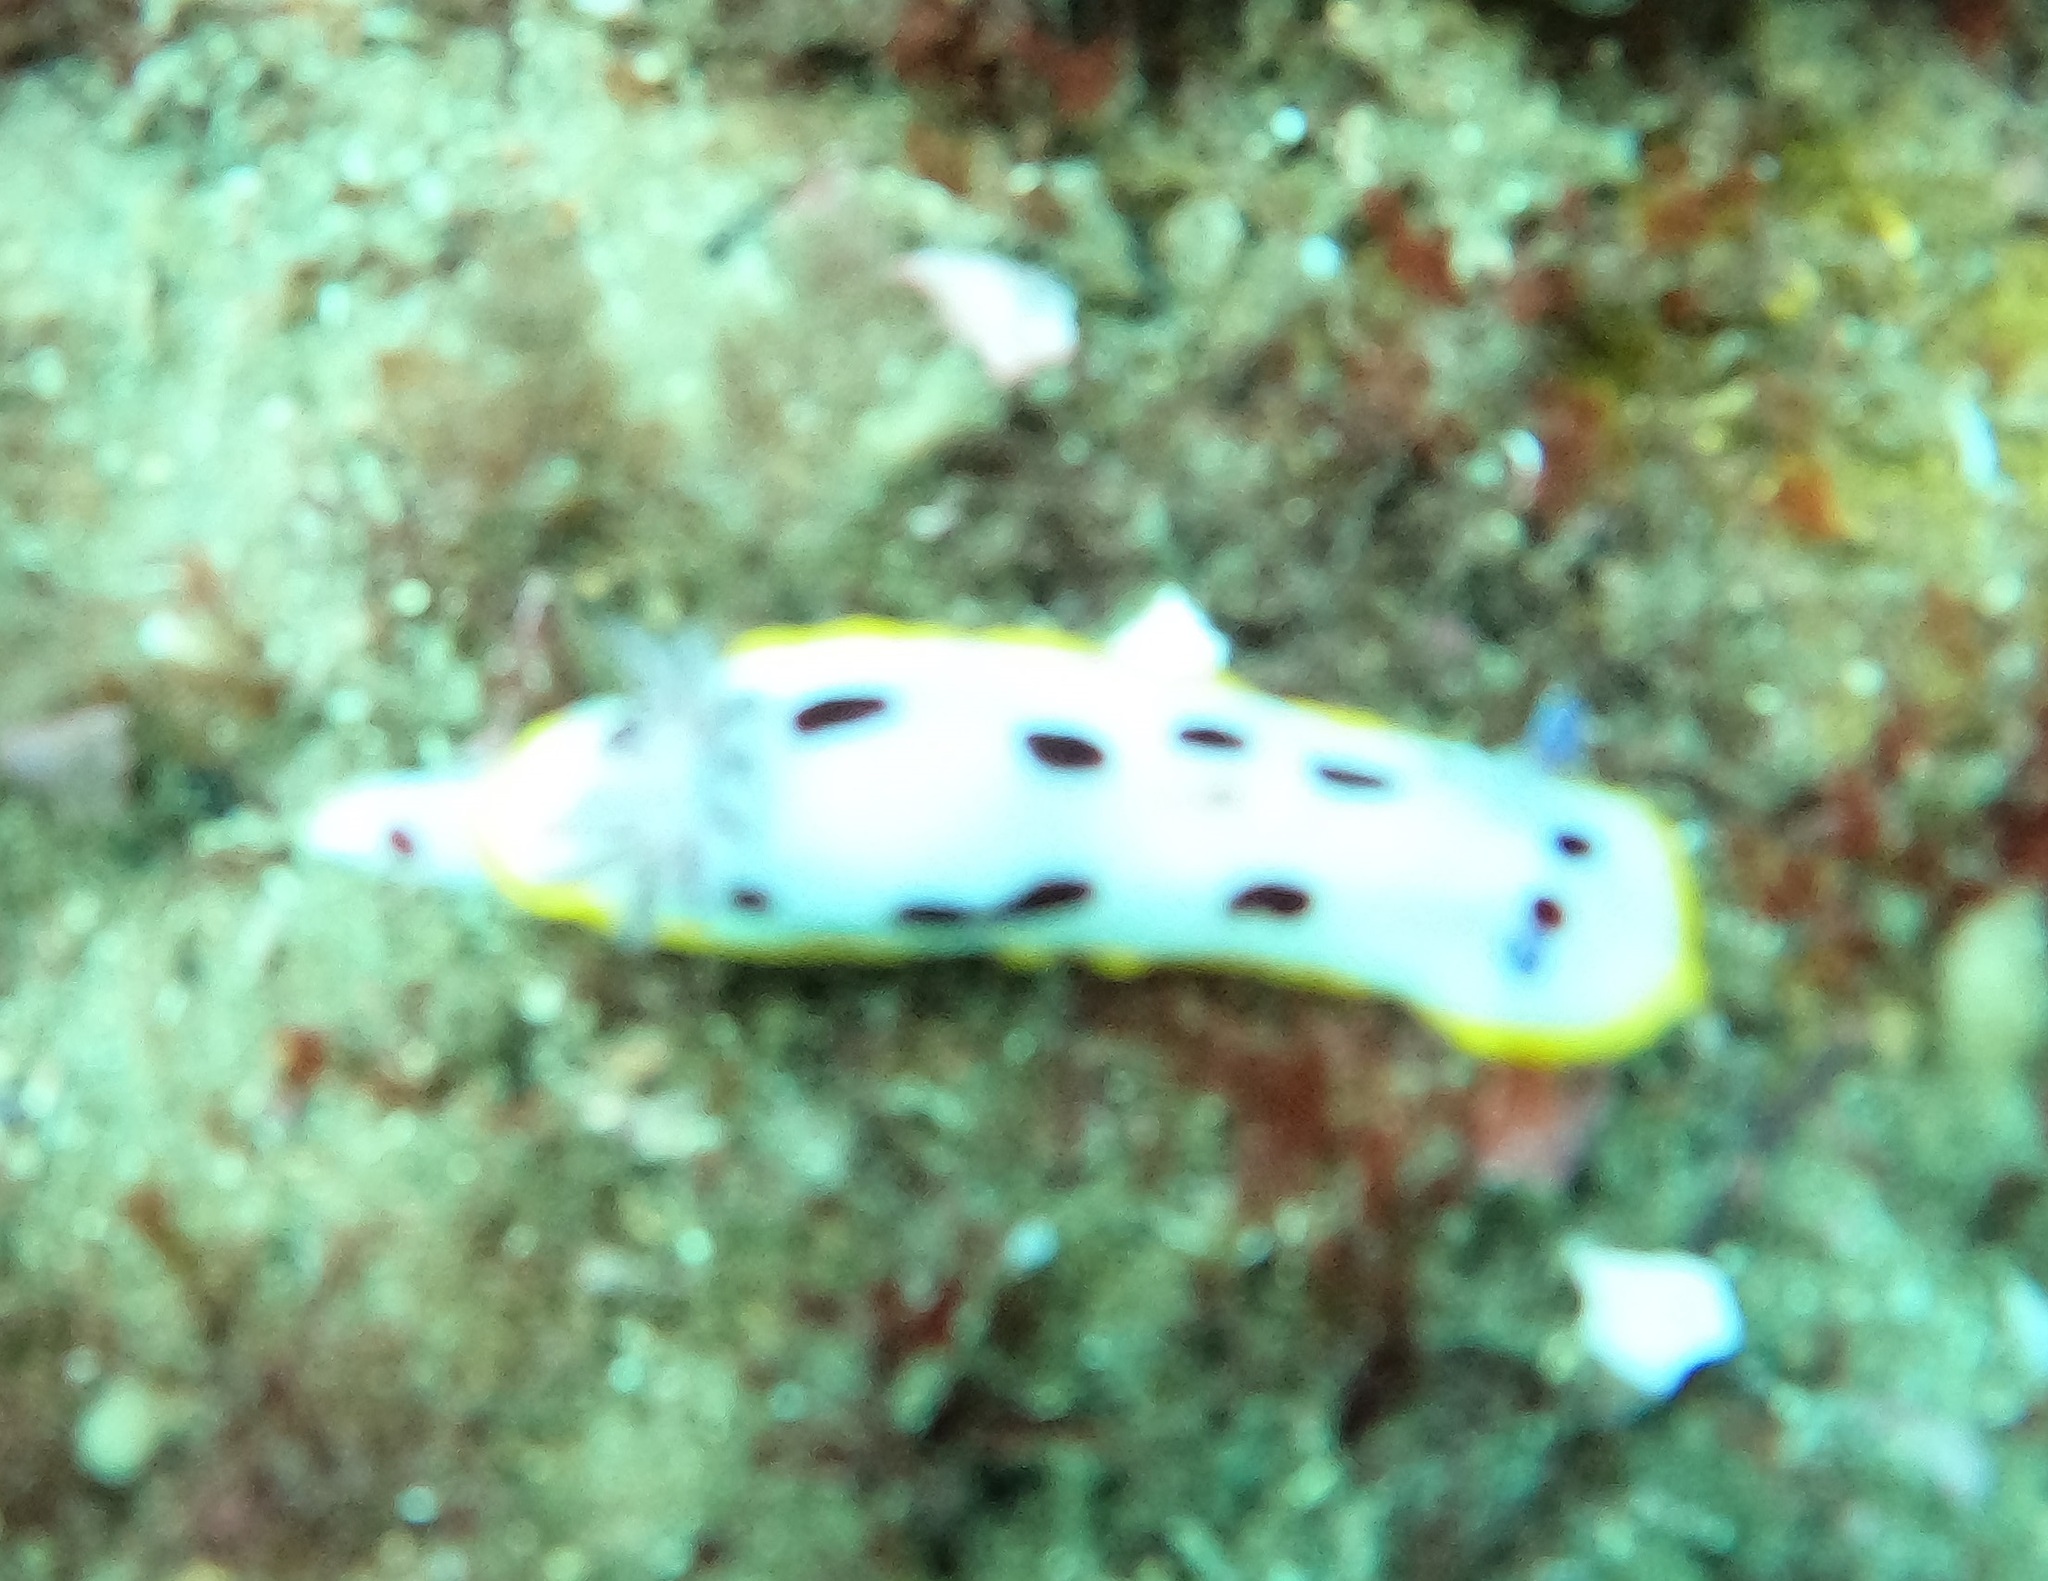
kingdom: Animalia
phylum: Mollusca
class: Gastropoda
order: Nudibranchia
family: Chromodorididae
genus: Goniobranchus
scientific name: Goniobranchus splendidus
